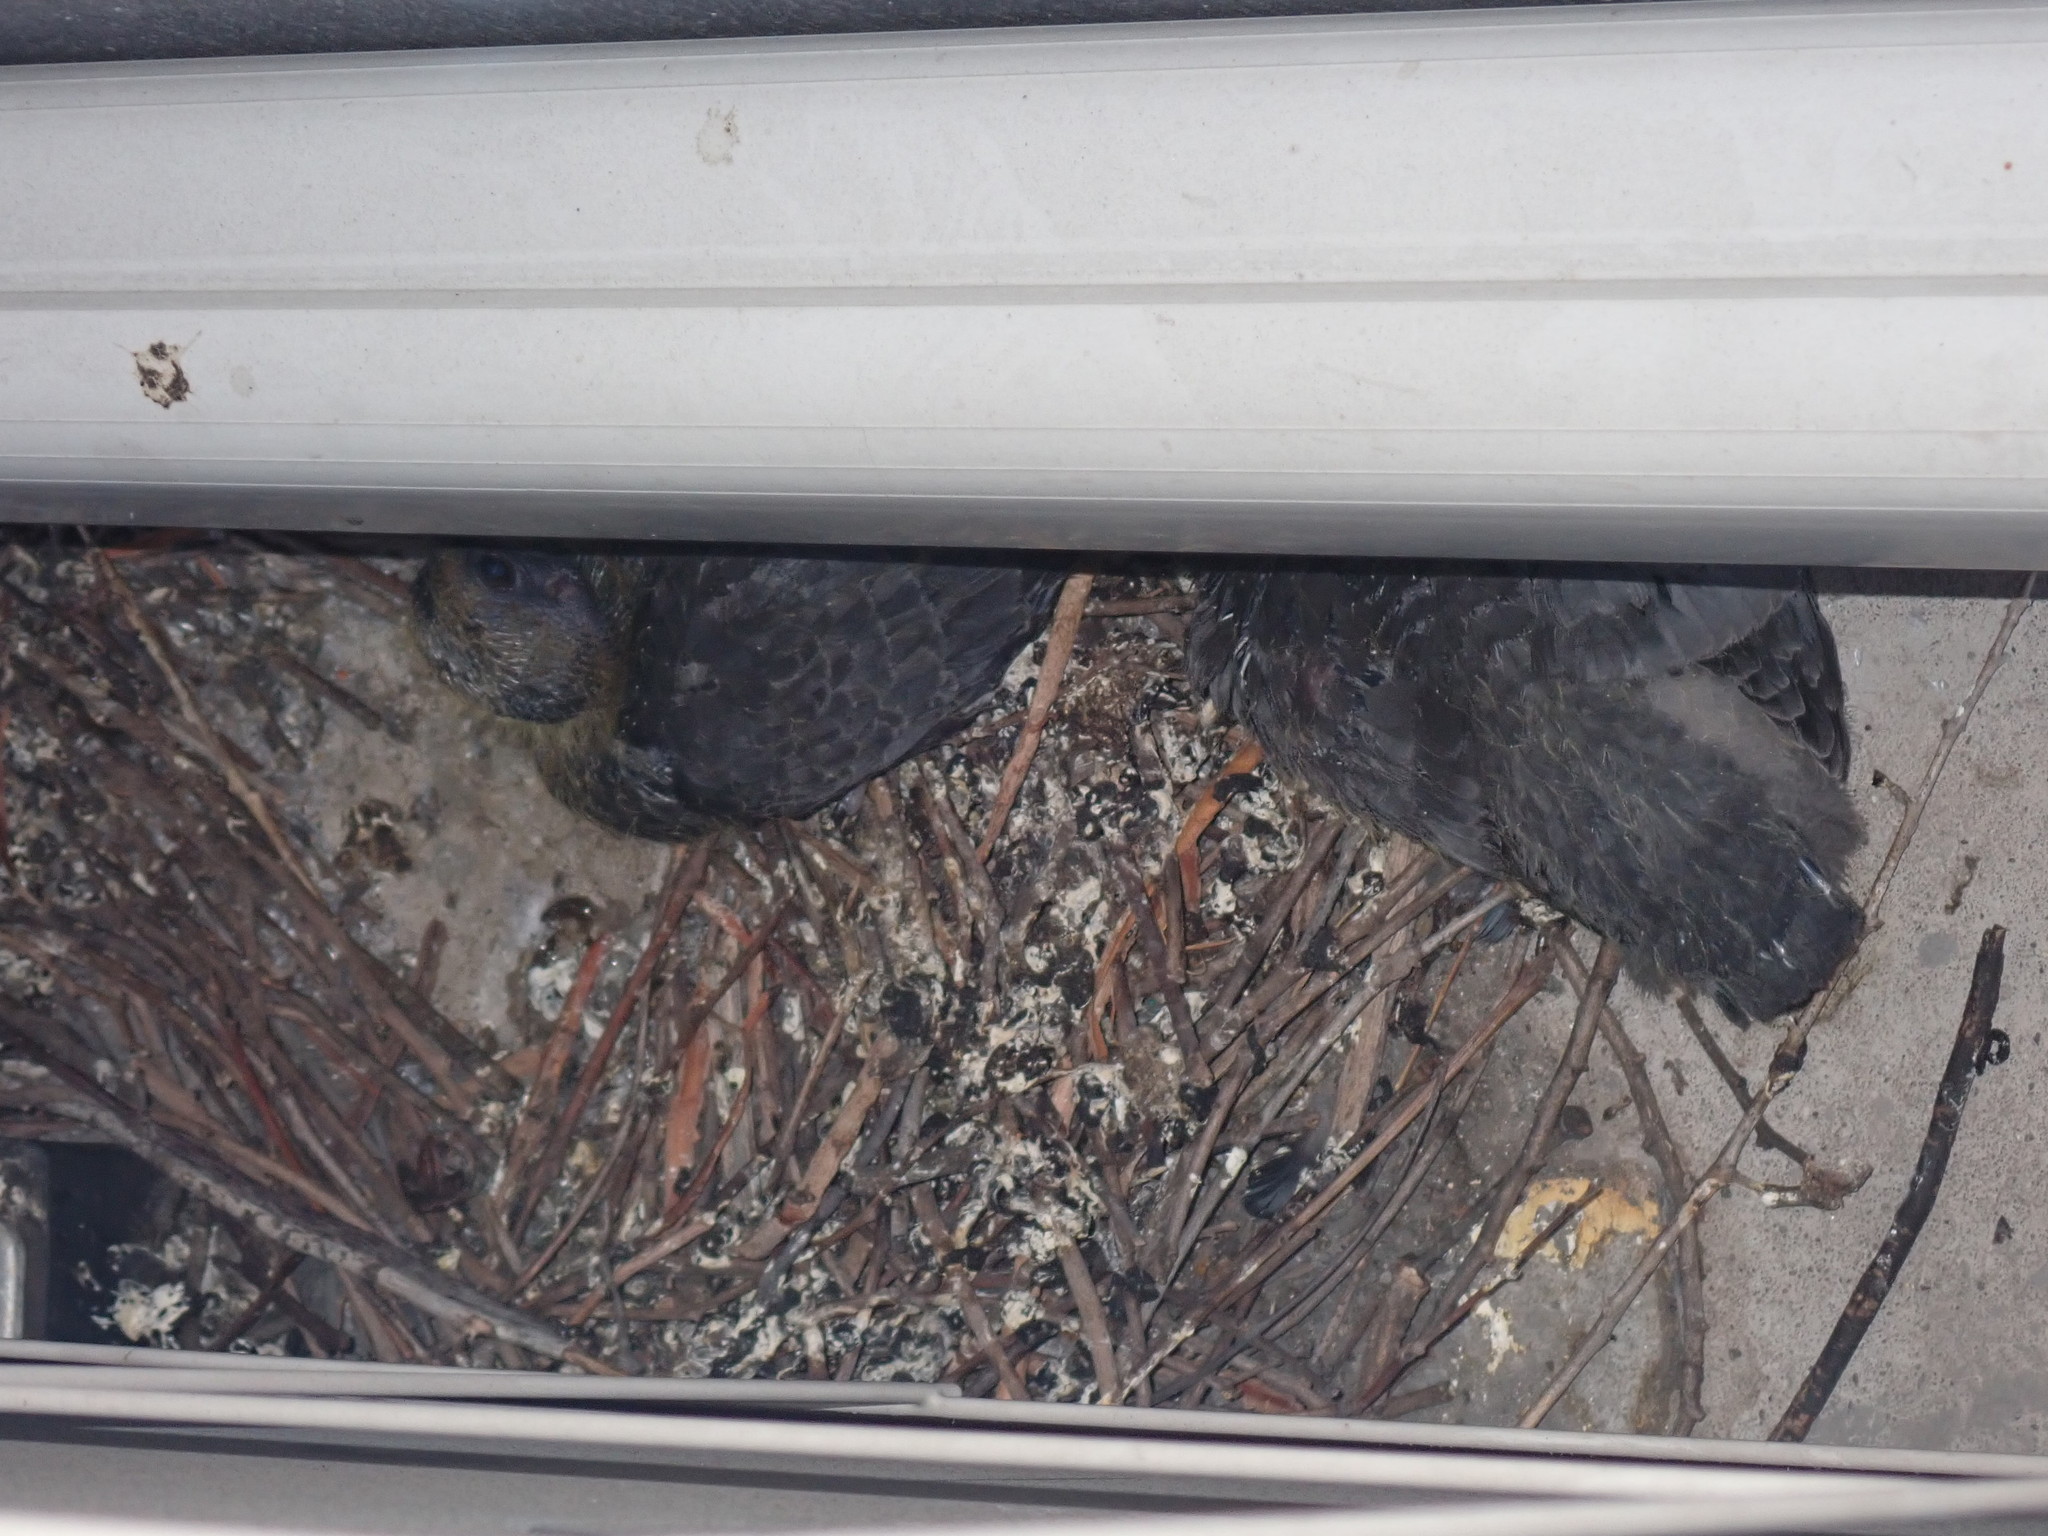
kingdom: Animalia
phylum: Chordata
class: Aves
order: Columbiformes
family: Columbidae
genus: Columba
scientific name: Columba livia
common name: Rock pigeon
